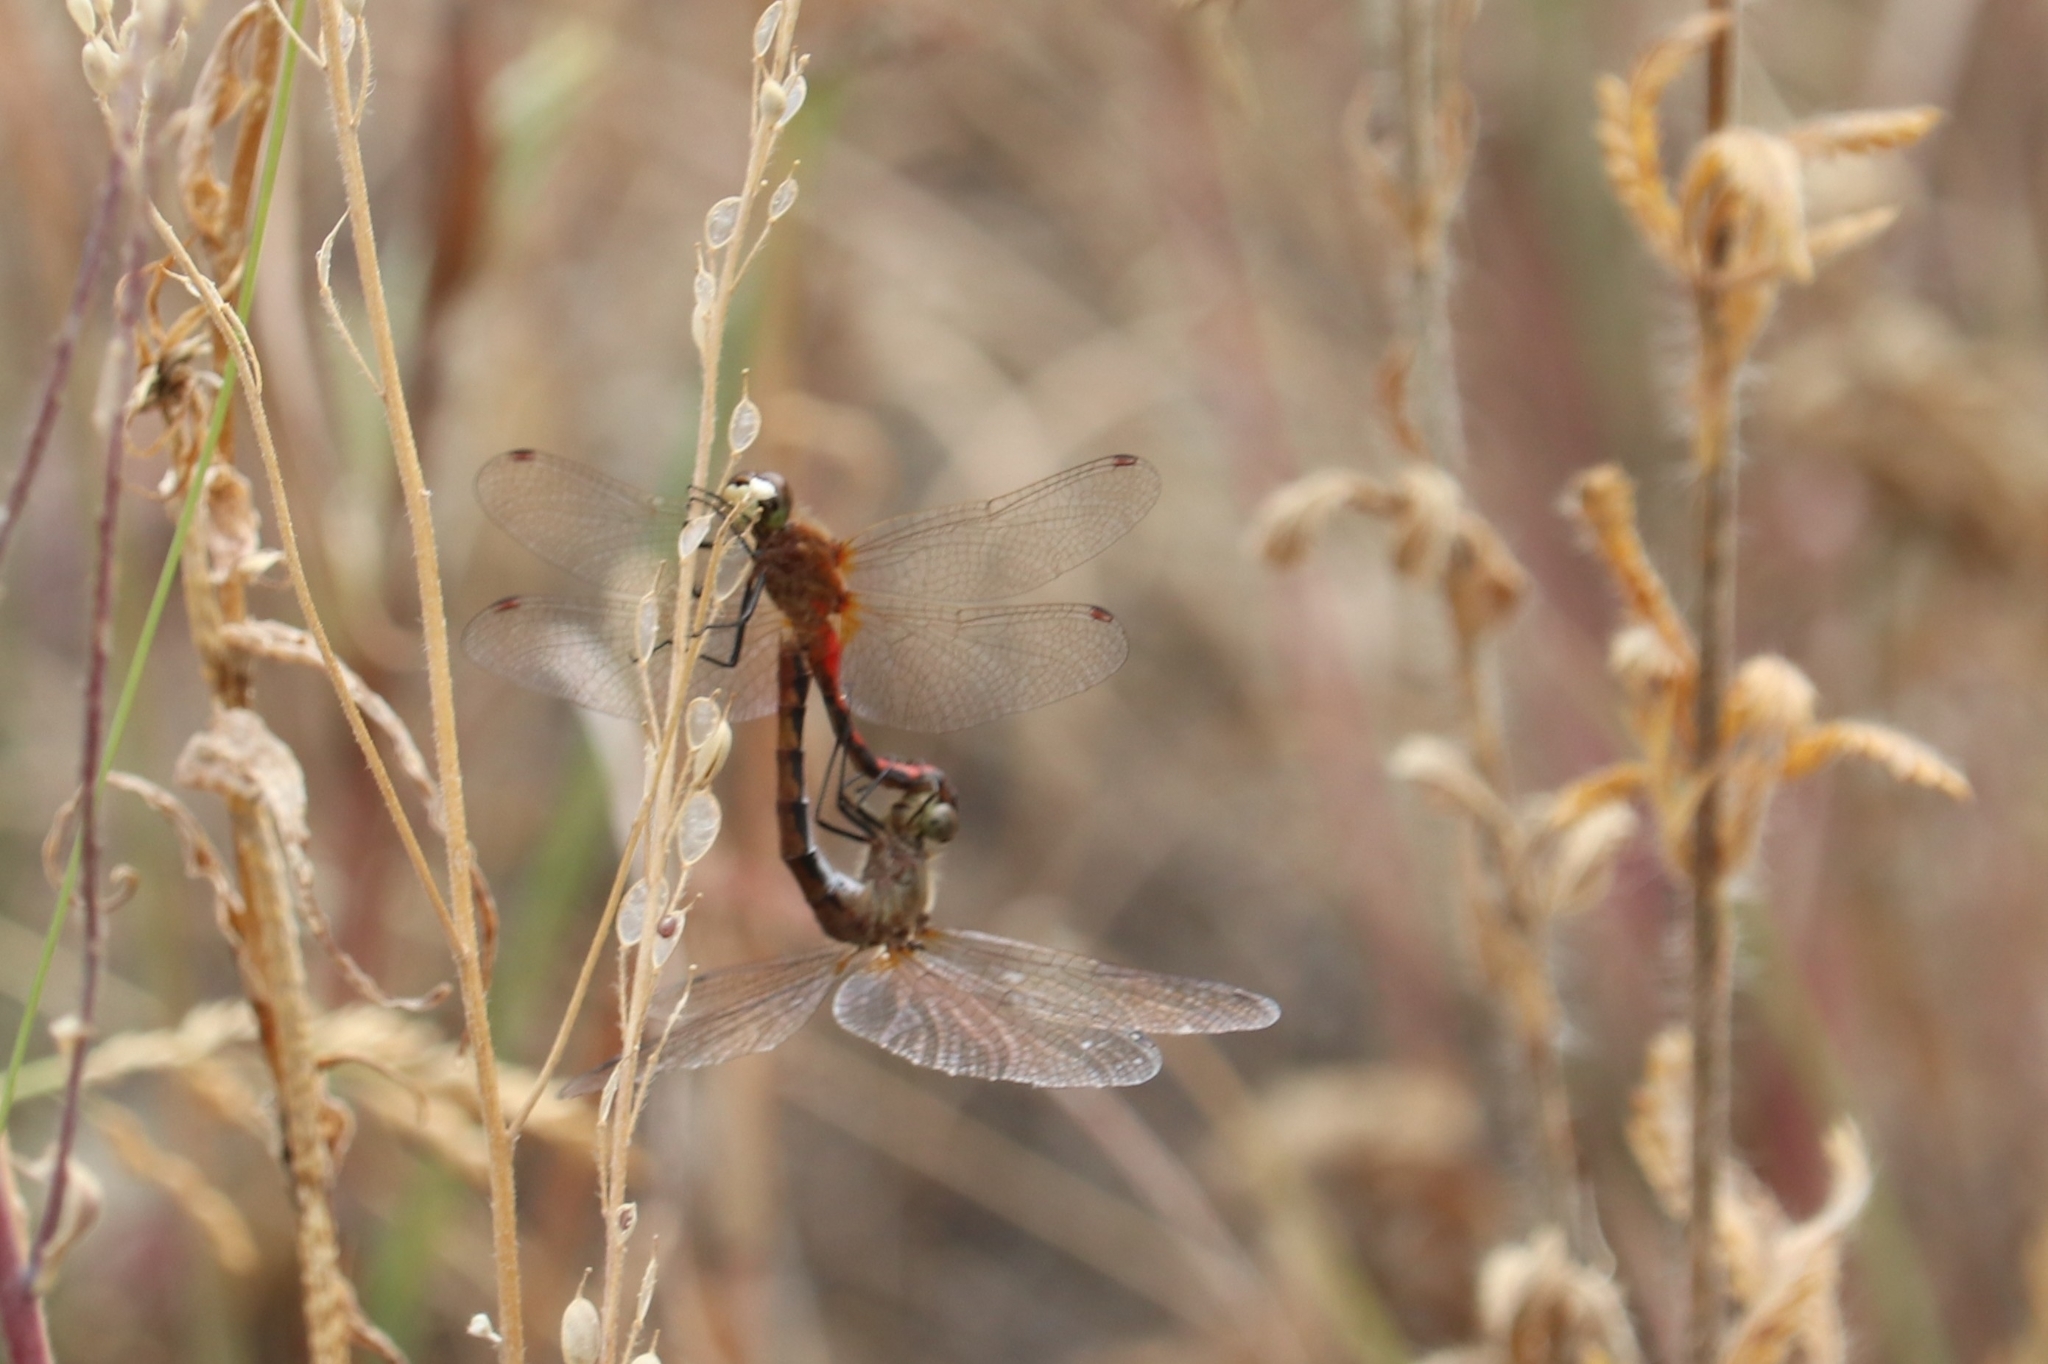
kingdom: Animalia
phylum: Arthropoda
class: Insecta
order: Odonata
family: Libellulidae
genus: Sympetrum
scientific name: Sympetrum obtrusum
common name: White-faced meadowhawk
